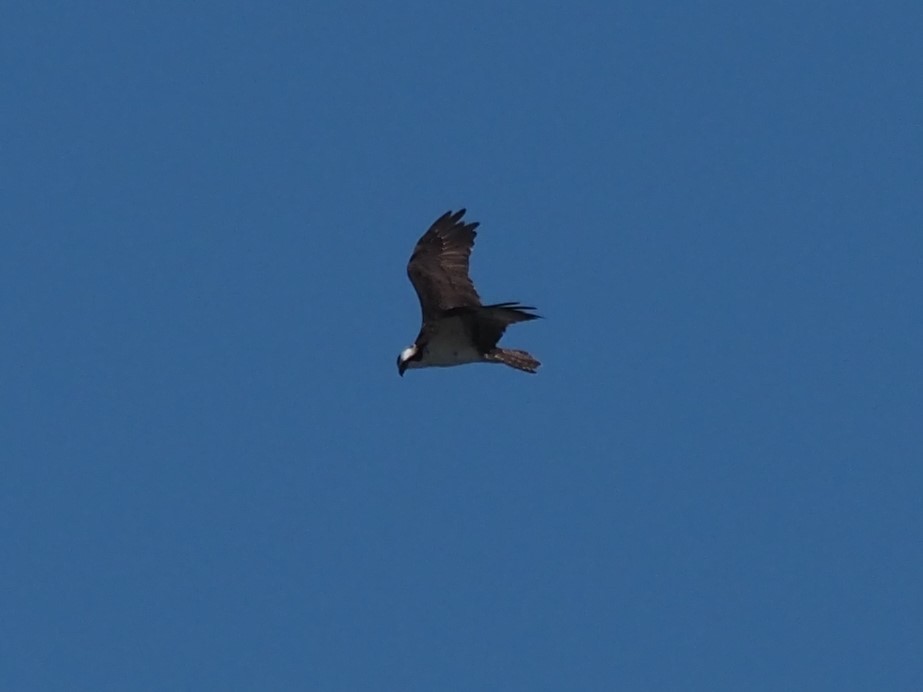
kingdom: Animalia
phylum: Chordata
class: Aves
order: Accipitriformes
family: Pandionidae
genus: Pandion
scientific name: Pandion haliaetus
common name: Osprey
